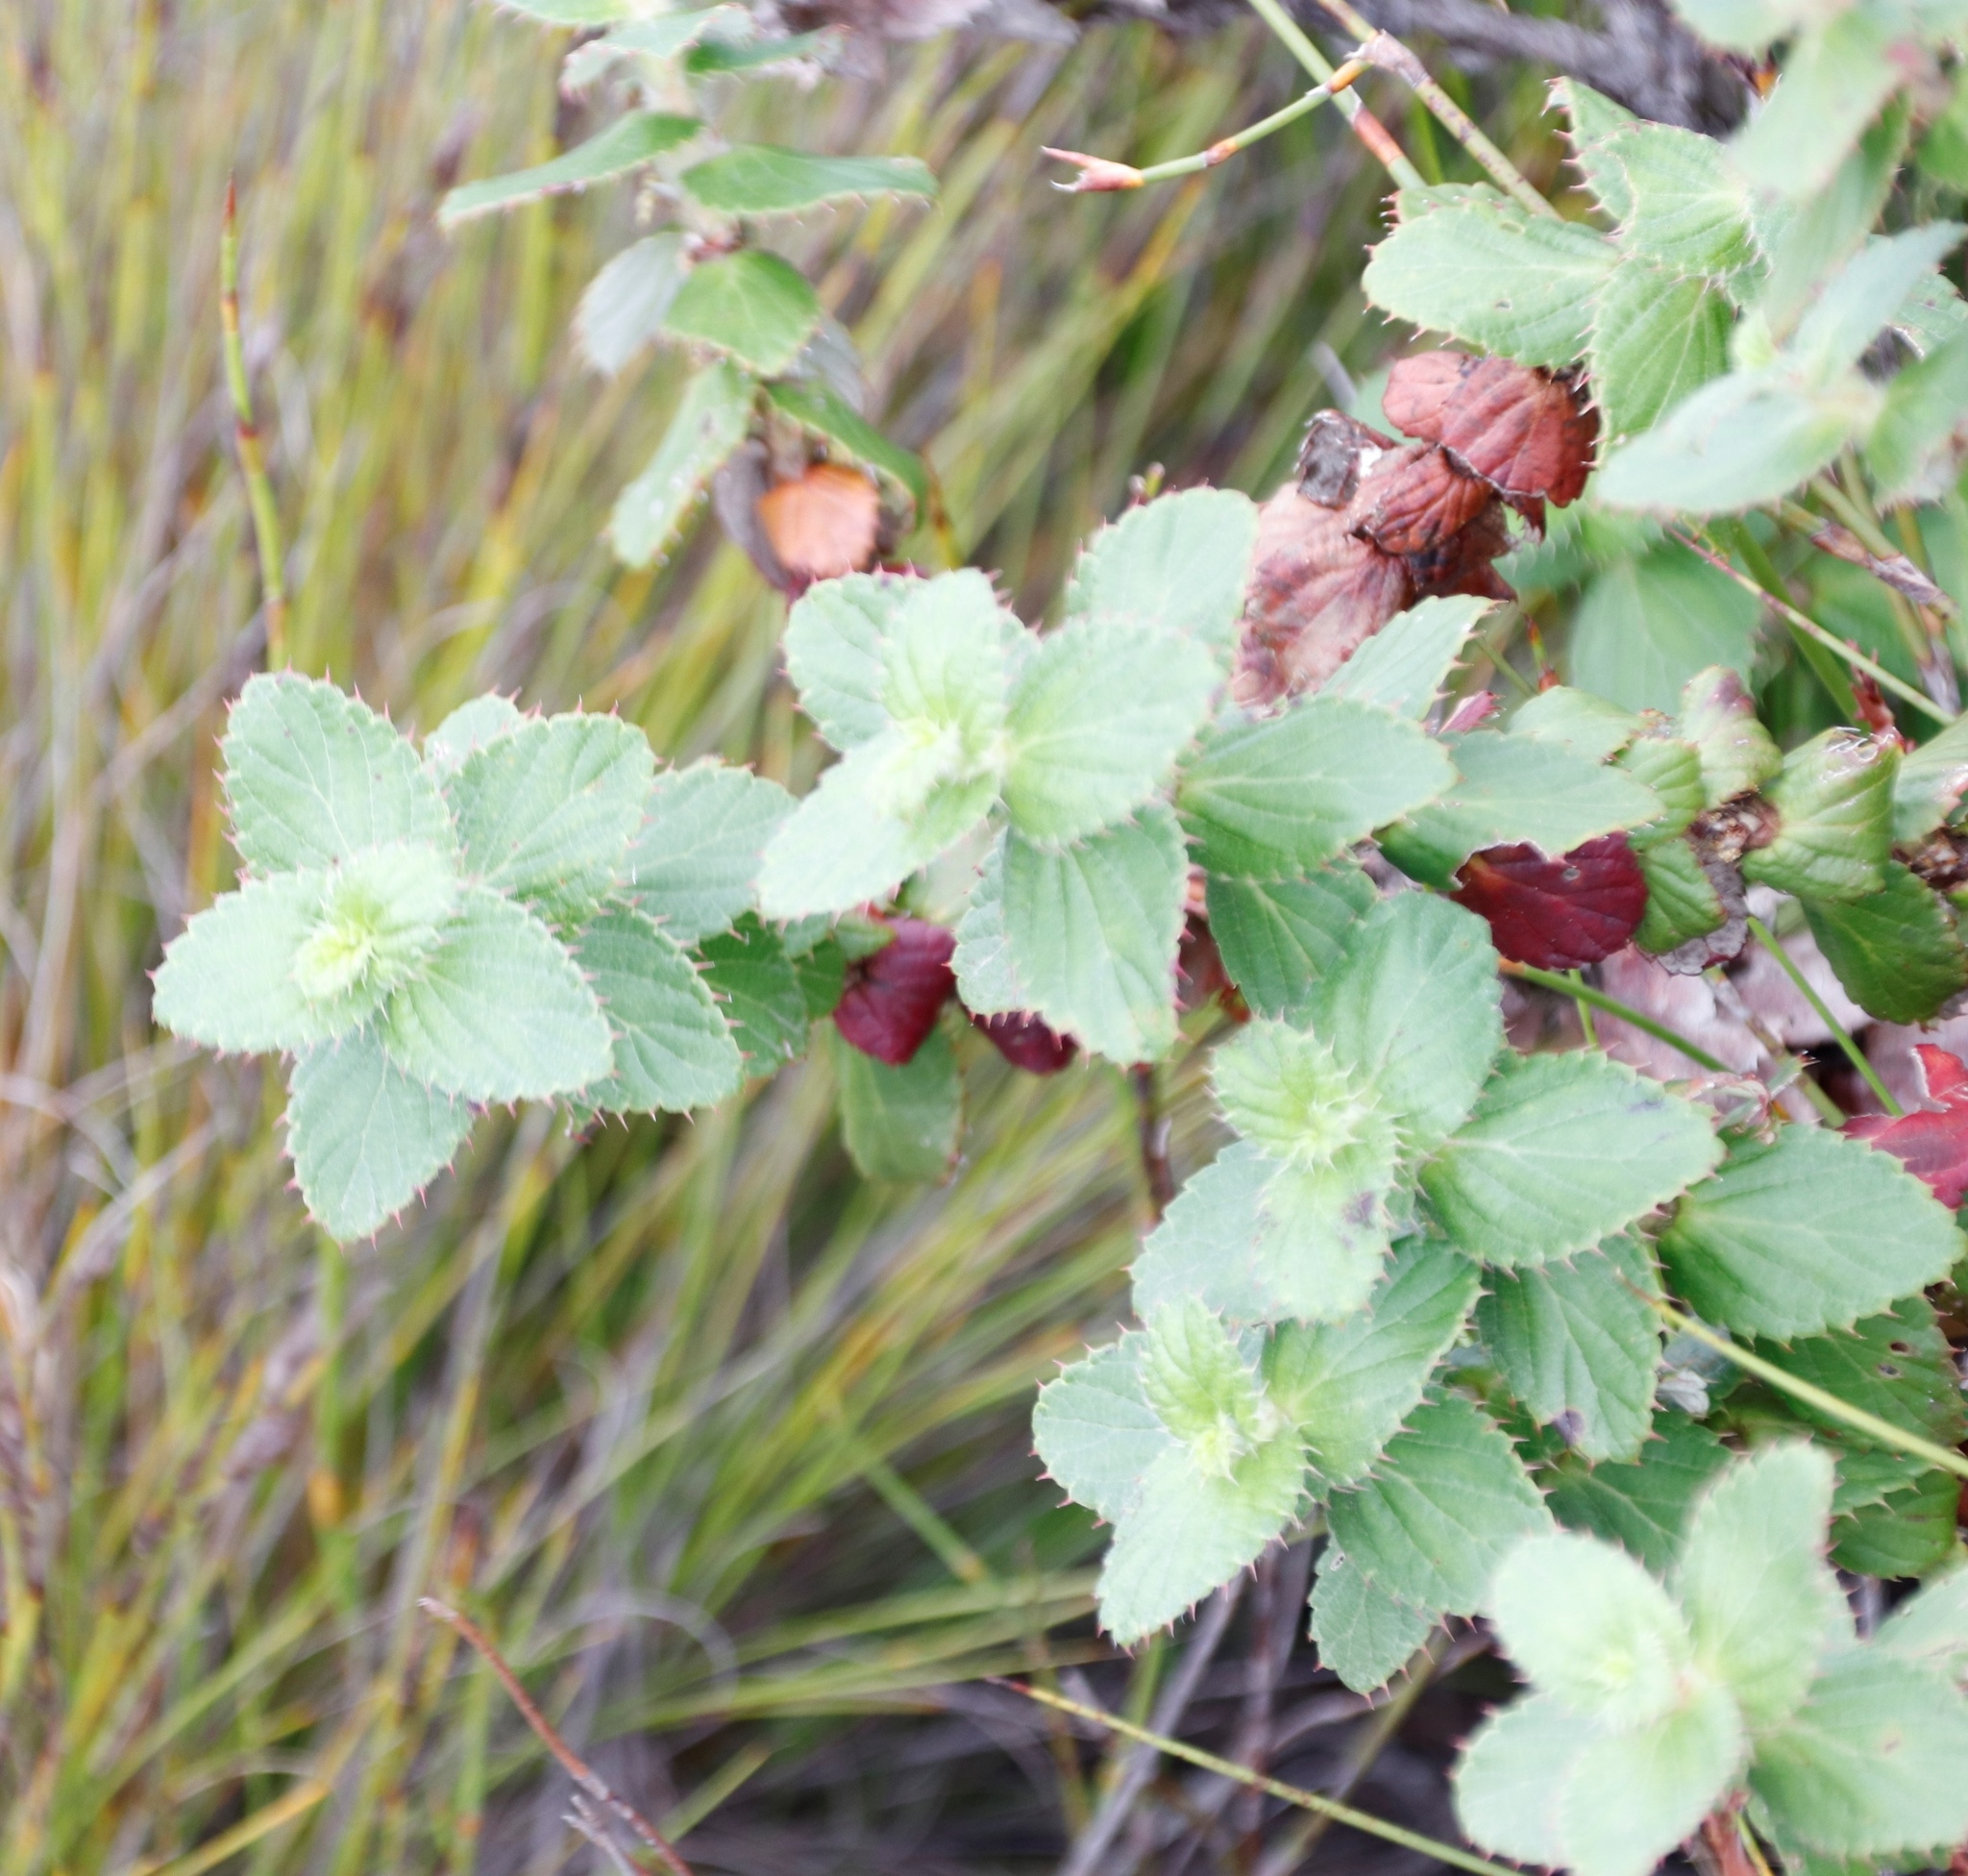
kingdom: Plantae
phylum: Tracheophyta
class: Magnoliopsida
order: Rosales
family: Rosaceae
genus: Cliffortia
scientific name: Cliffortia hirsuta
